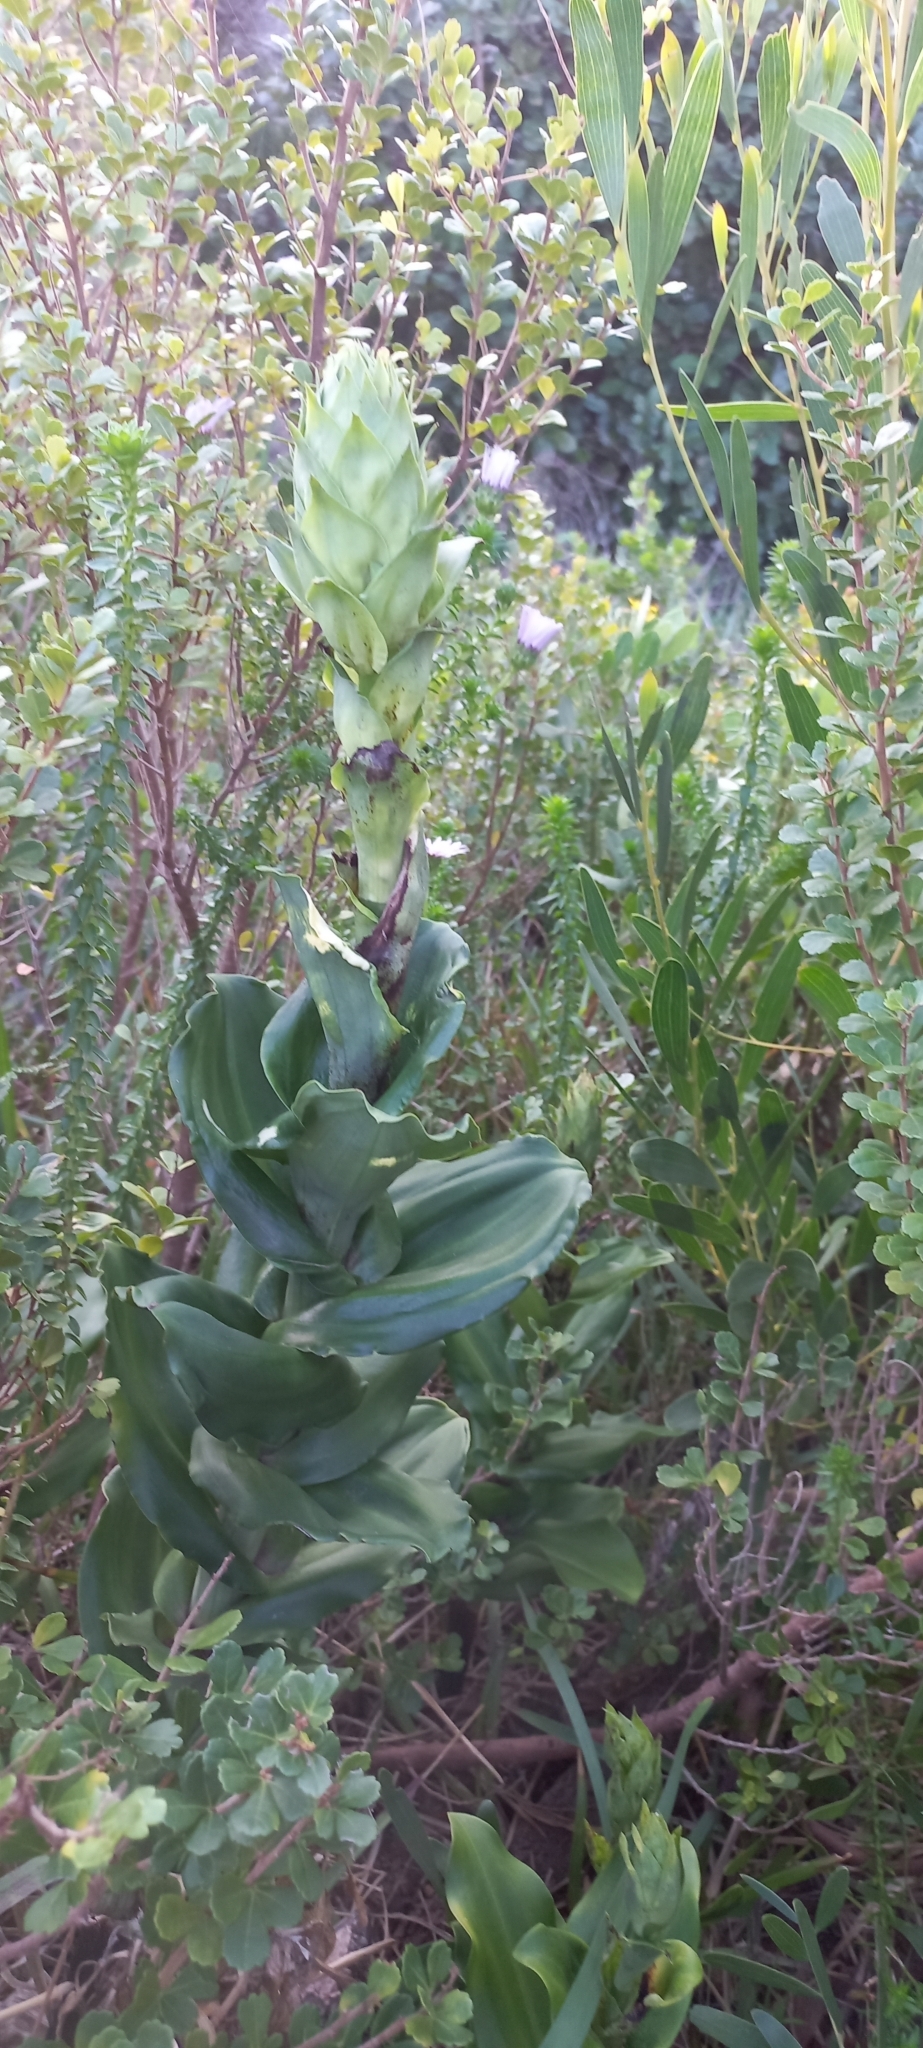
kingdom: Plantae
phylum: Tracheophyta
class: Liliopsida
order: Asparagales
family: Orchidaceae
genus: Bonatea
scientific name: Bonatea speciosa
